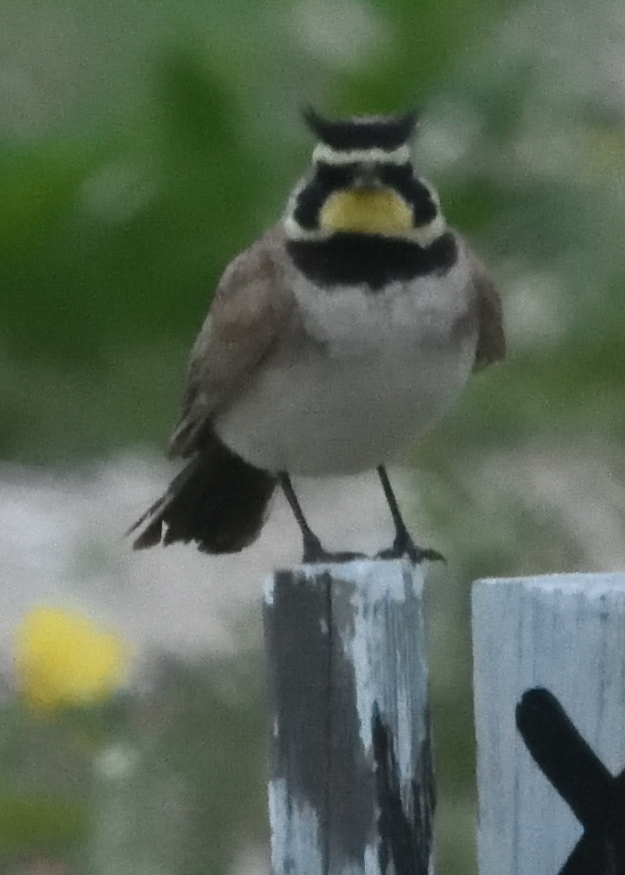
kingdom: Animalia
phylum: Chordata
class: Aves
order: Passeriformes
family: Alaudidae
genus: Eremophila
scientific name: Eremophila alpestris
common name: Horned lark
